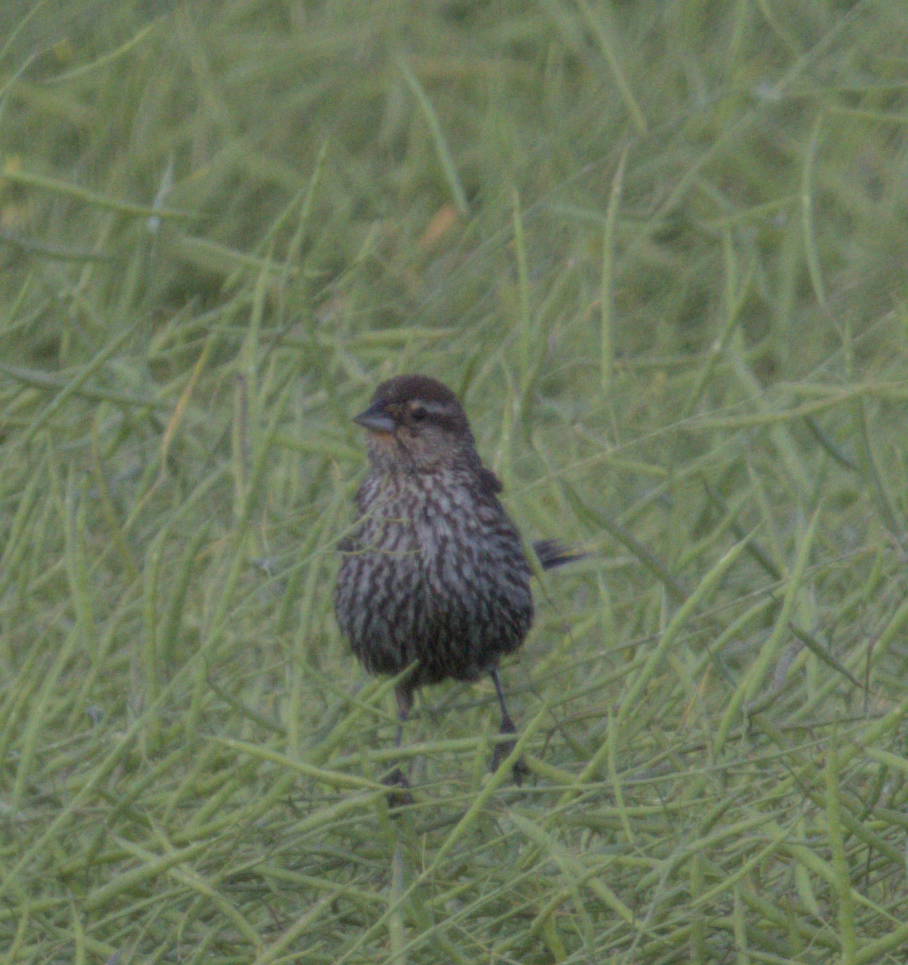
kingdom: Animalia
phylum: Chordata
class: Aves
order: Passeriformes
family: Icteridae
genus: Agelaius
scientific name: Agelaius phoeniceus
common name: Red-winged blackbird
